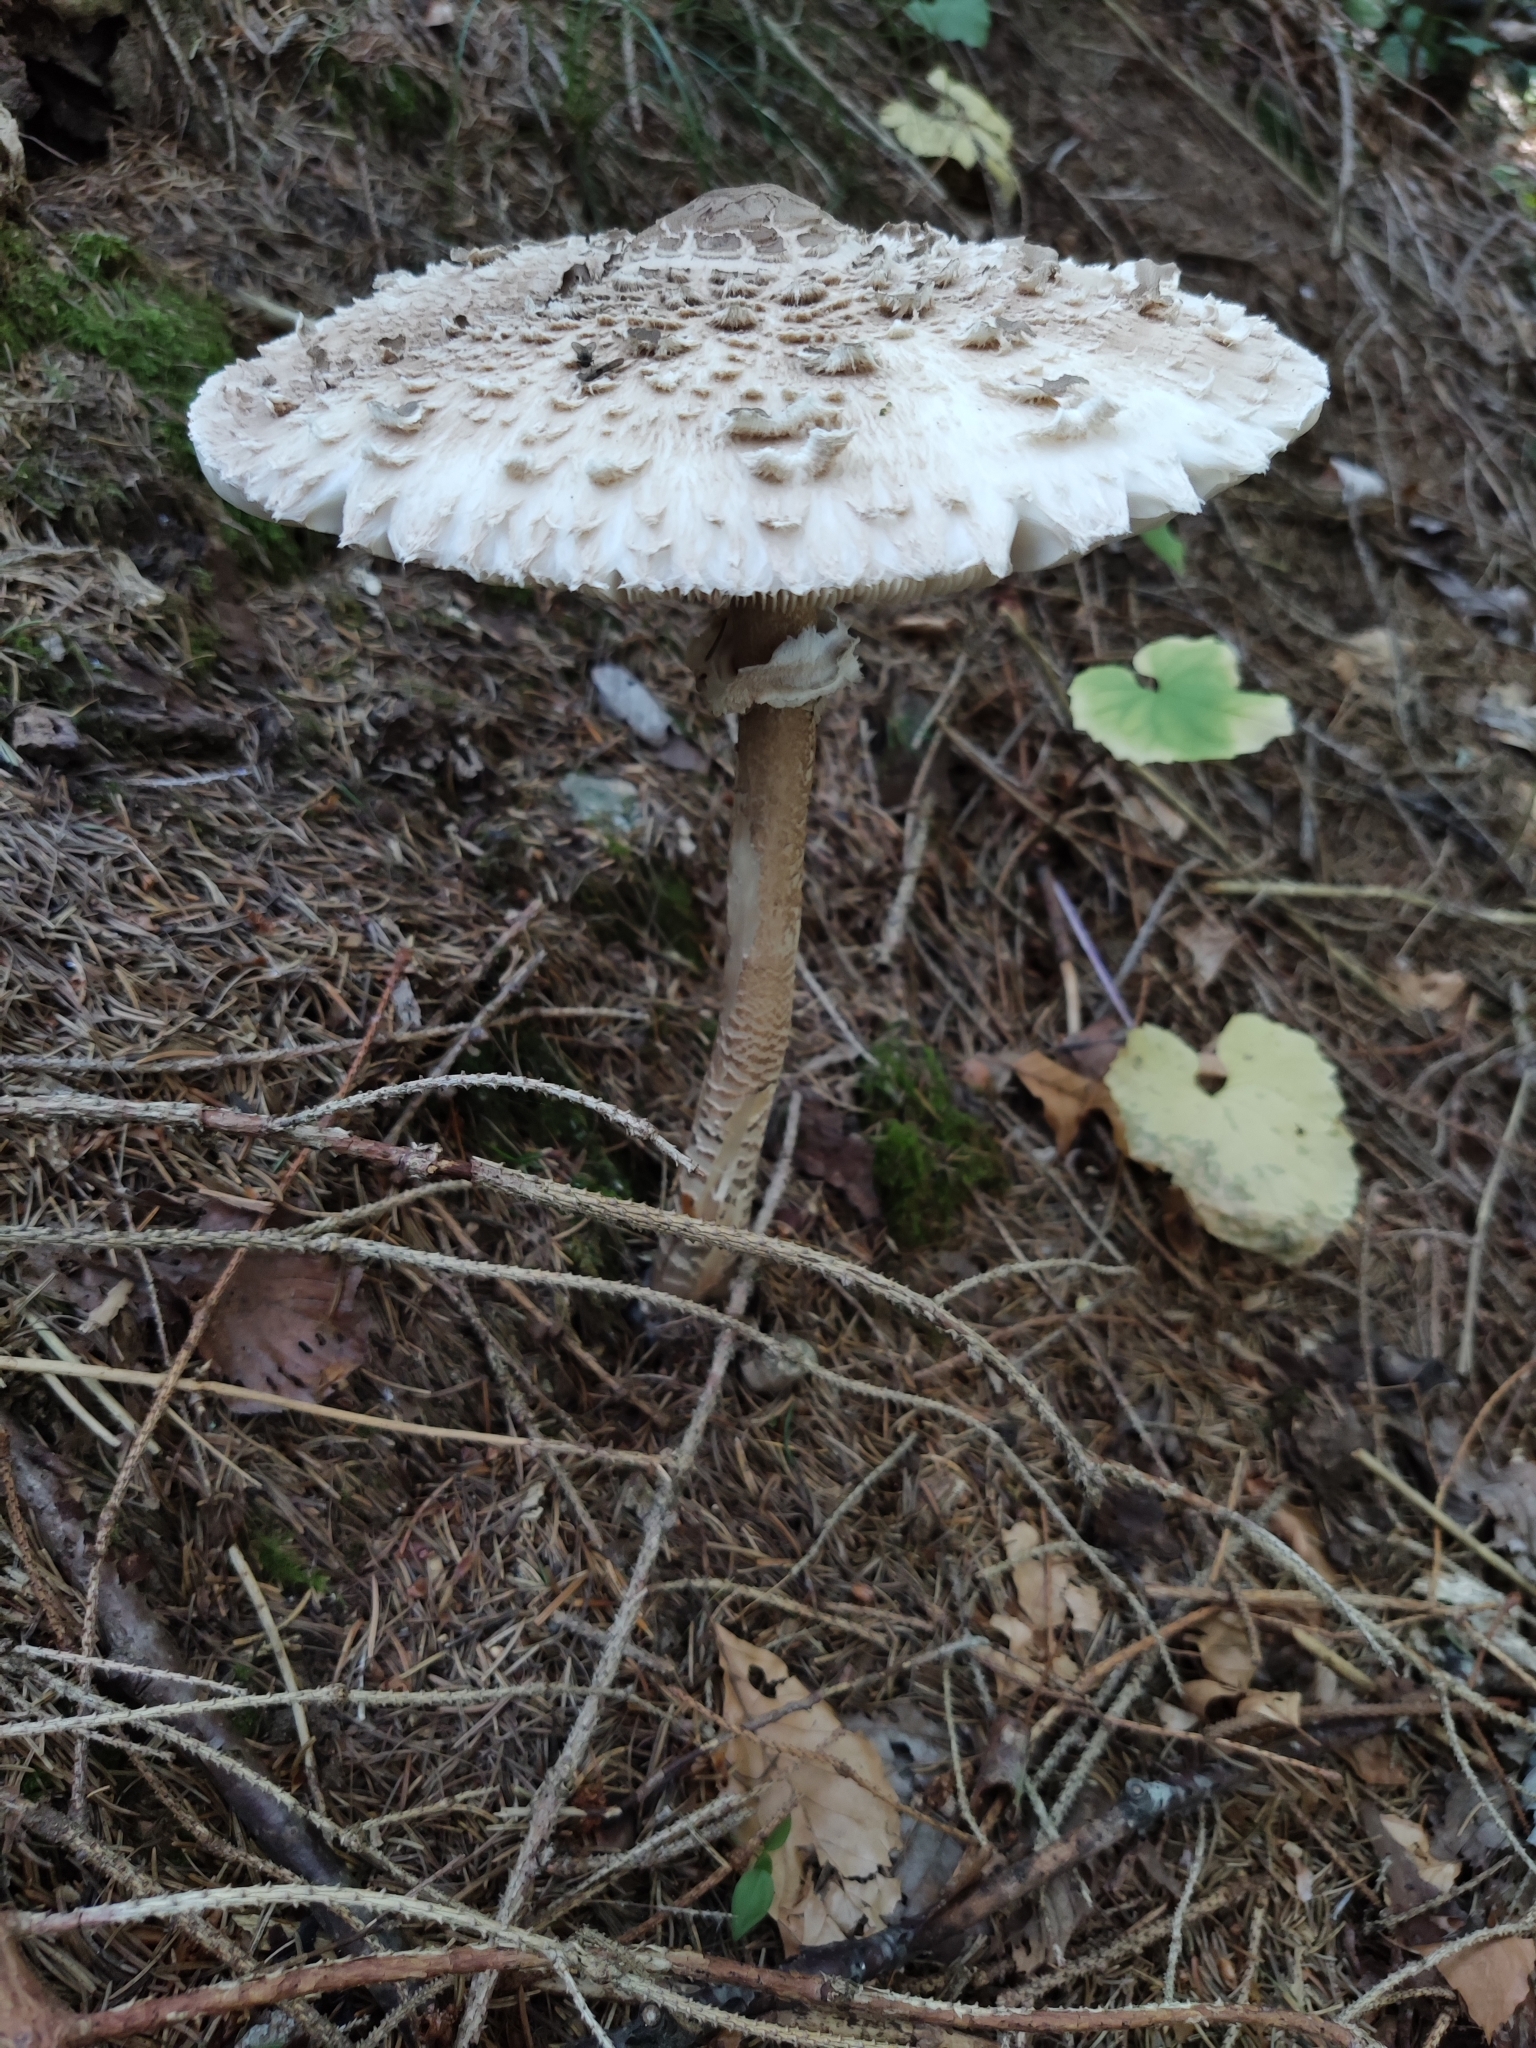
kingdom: Fungi
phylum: Basidiomycota
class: Agaricomycetes
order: Agaricales
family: Agaricaceae
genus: Macrolepiota
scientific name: Macrolepiota procera
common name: Parasol
